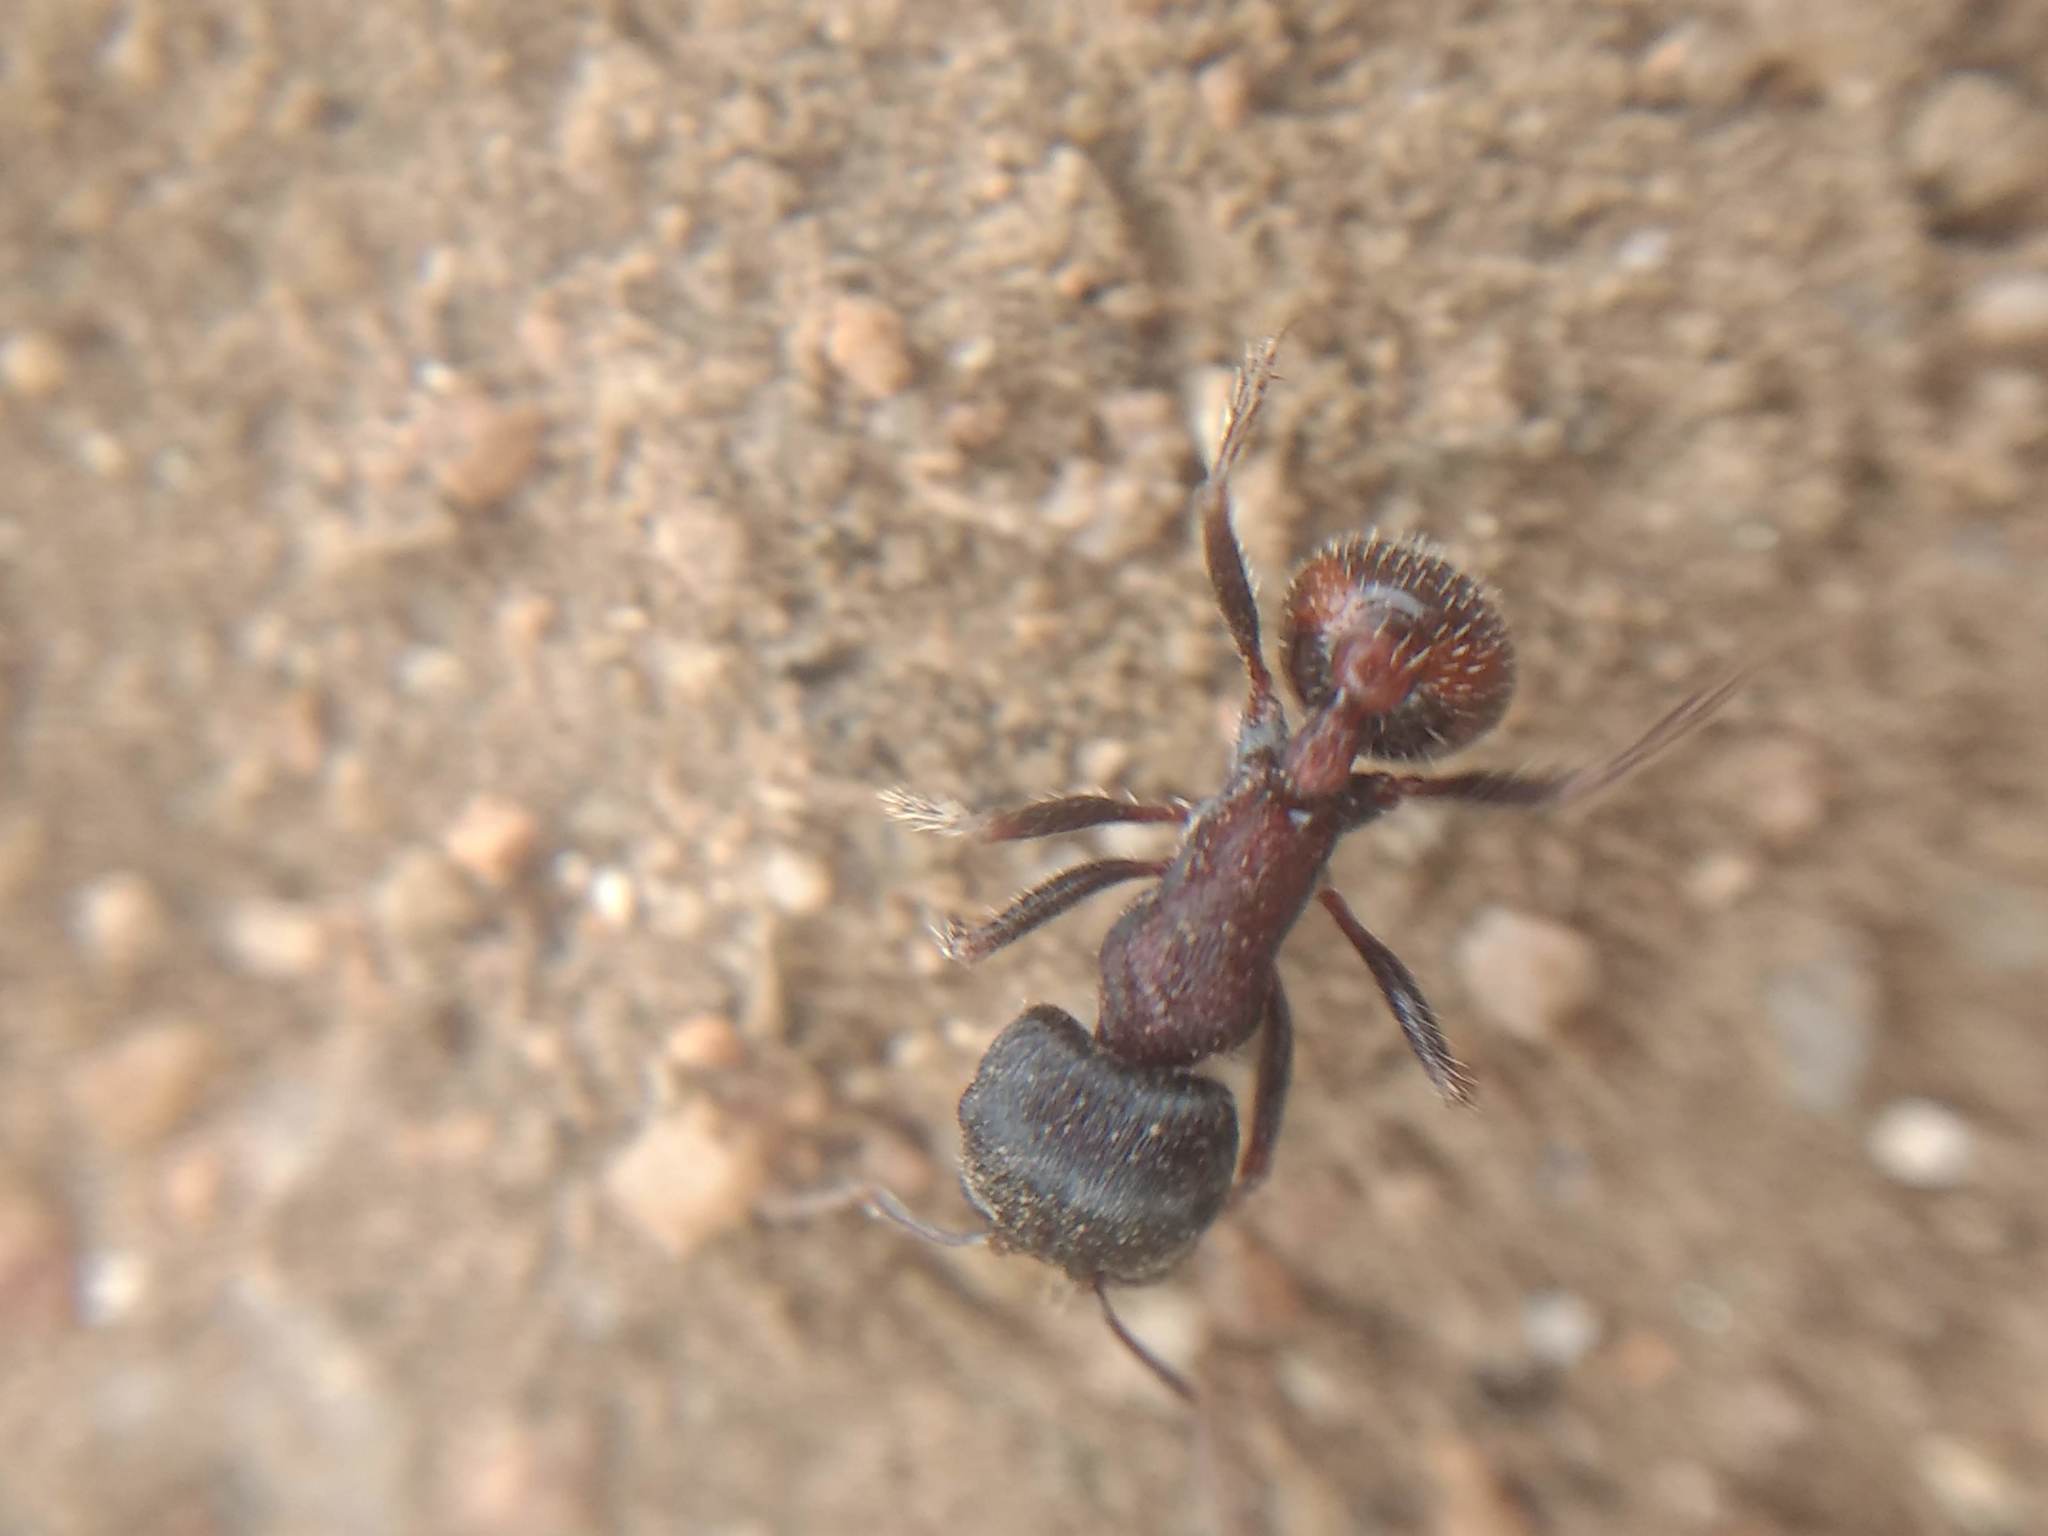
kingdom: Animalia
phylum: Arthropoda
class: Insecta
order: Hymenoptera
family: Formicidae
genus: Pogonomyrmex
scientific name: Pogonomyrmex rugosus
